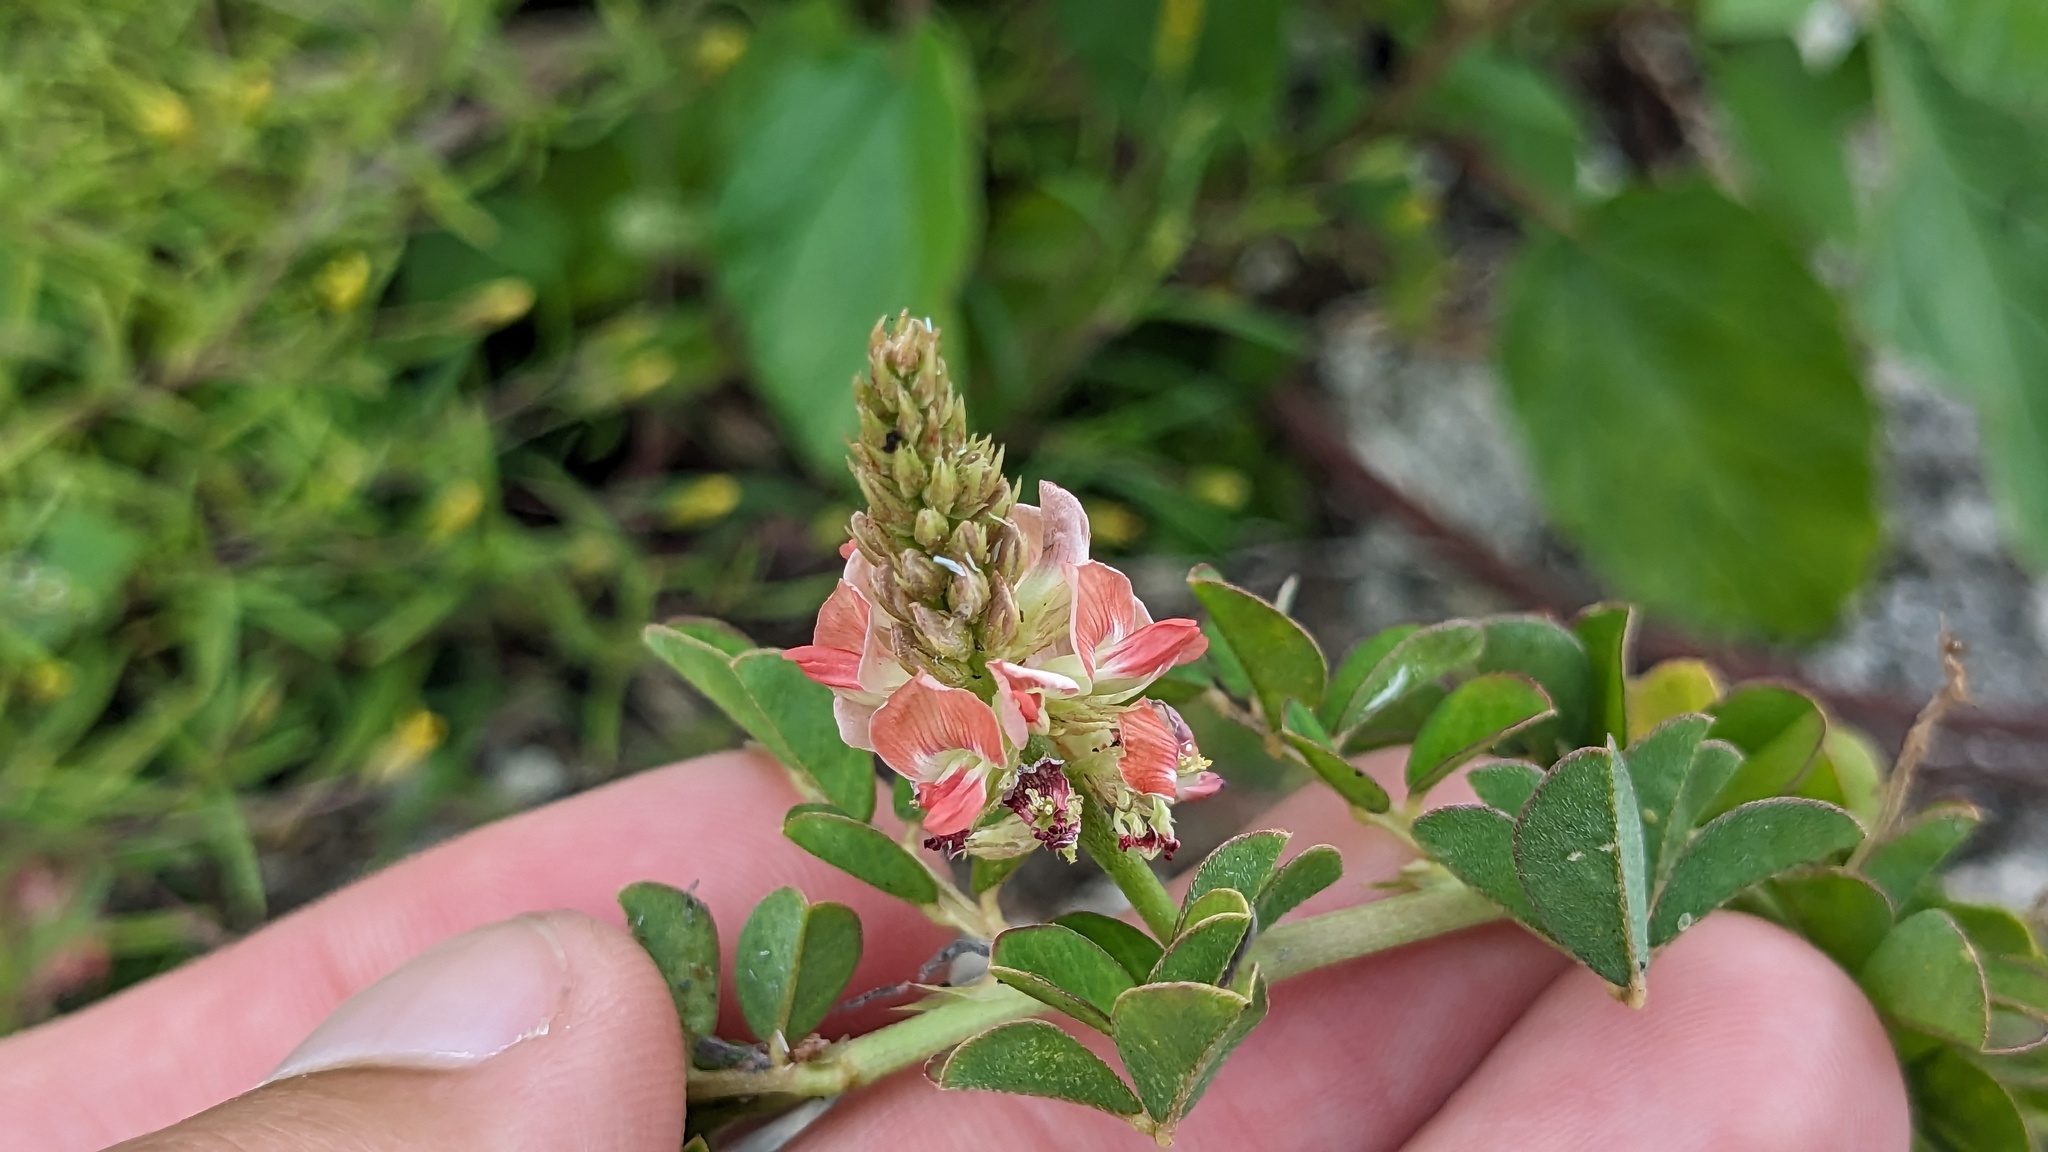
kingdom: Plantae
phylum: Tracheophyta
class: Magnoliopsida
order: Fabales
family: Fabaceae
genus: Indigofera
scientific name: Indigofera spicata
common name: Creeping indigo
